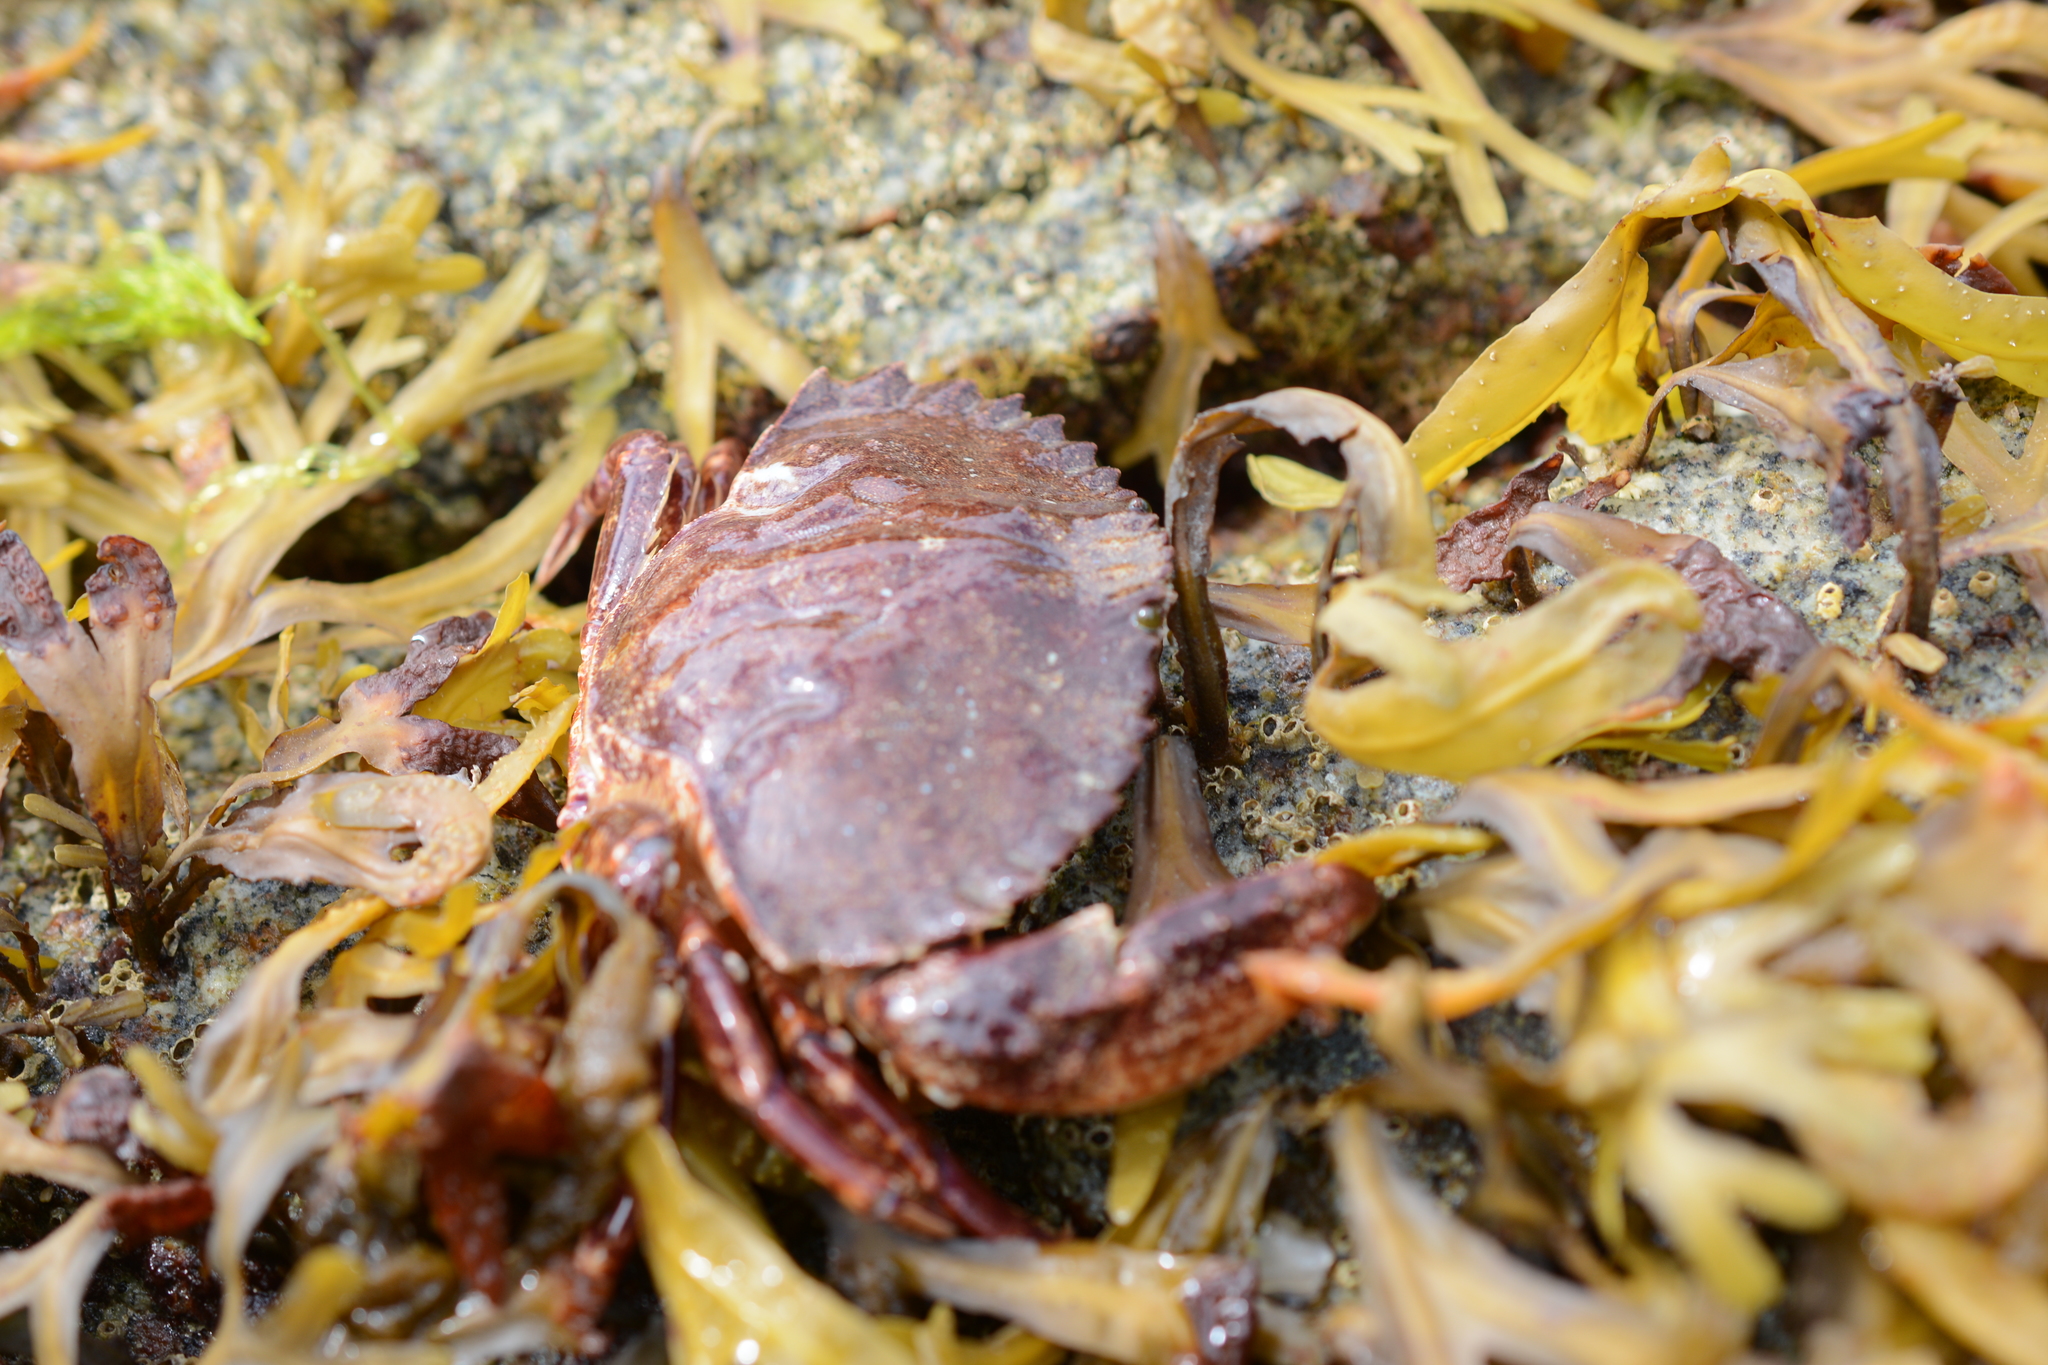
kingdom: Animalia
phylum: Arthropoda
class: Malacostraca
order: Decapoda
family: Cancridae
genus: Cancer
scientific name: Cancer productus
